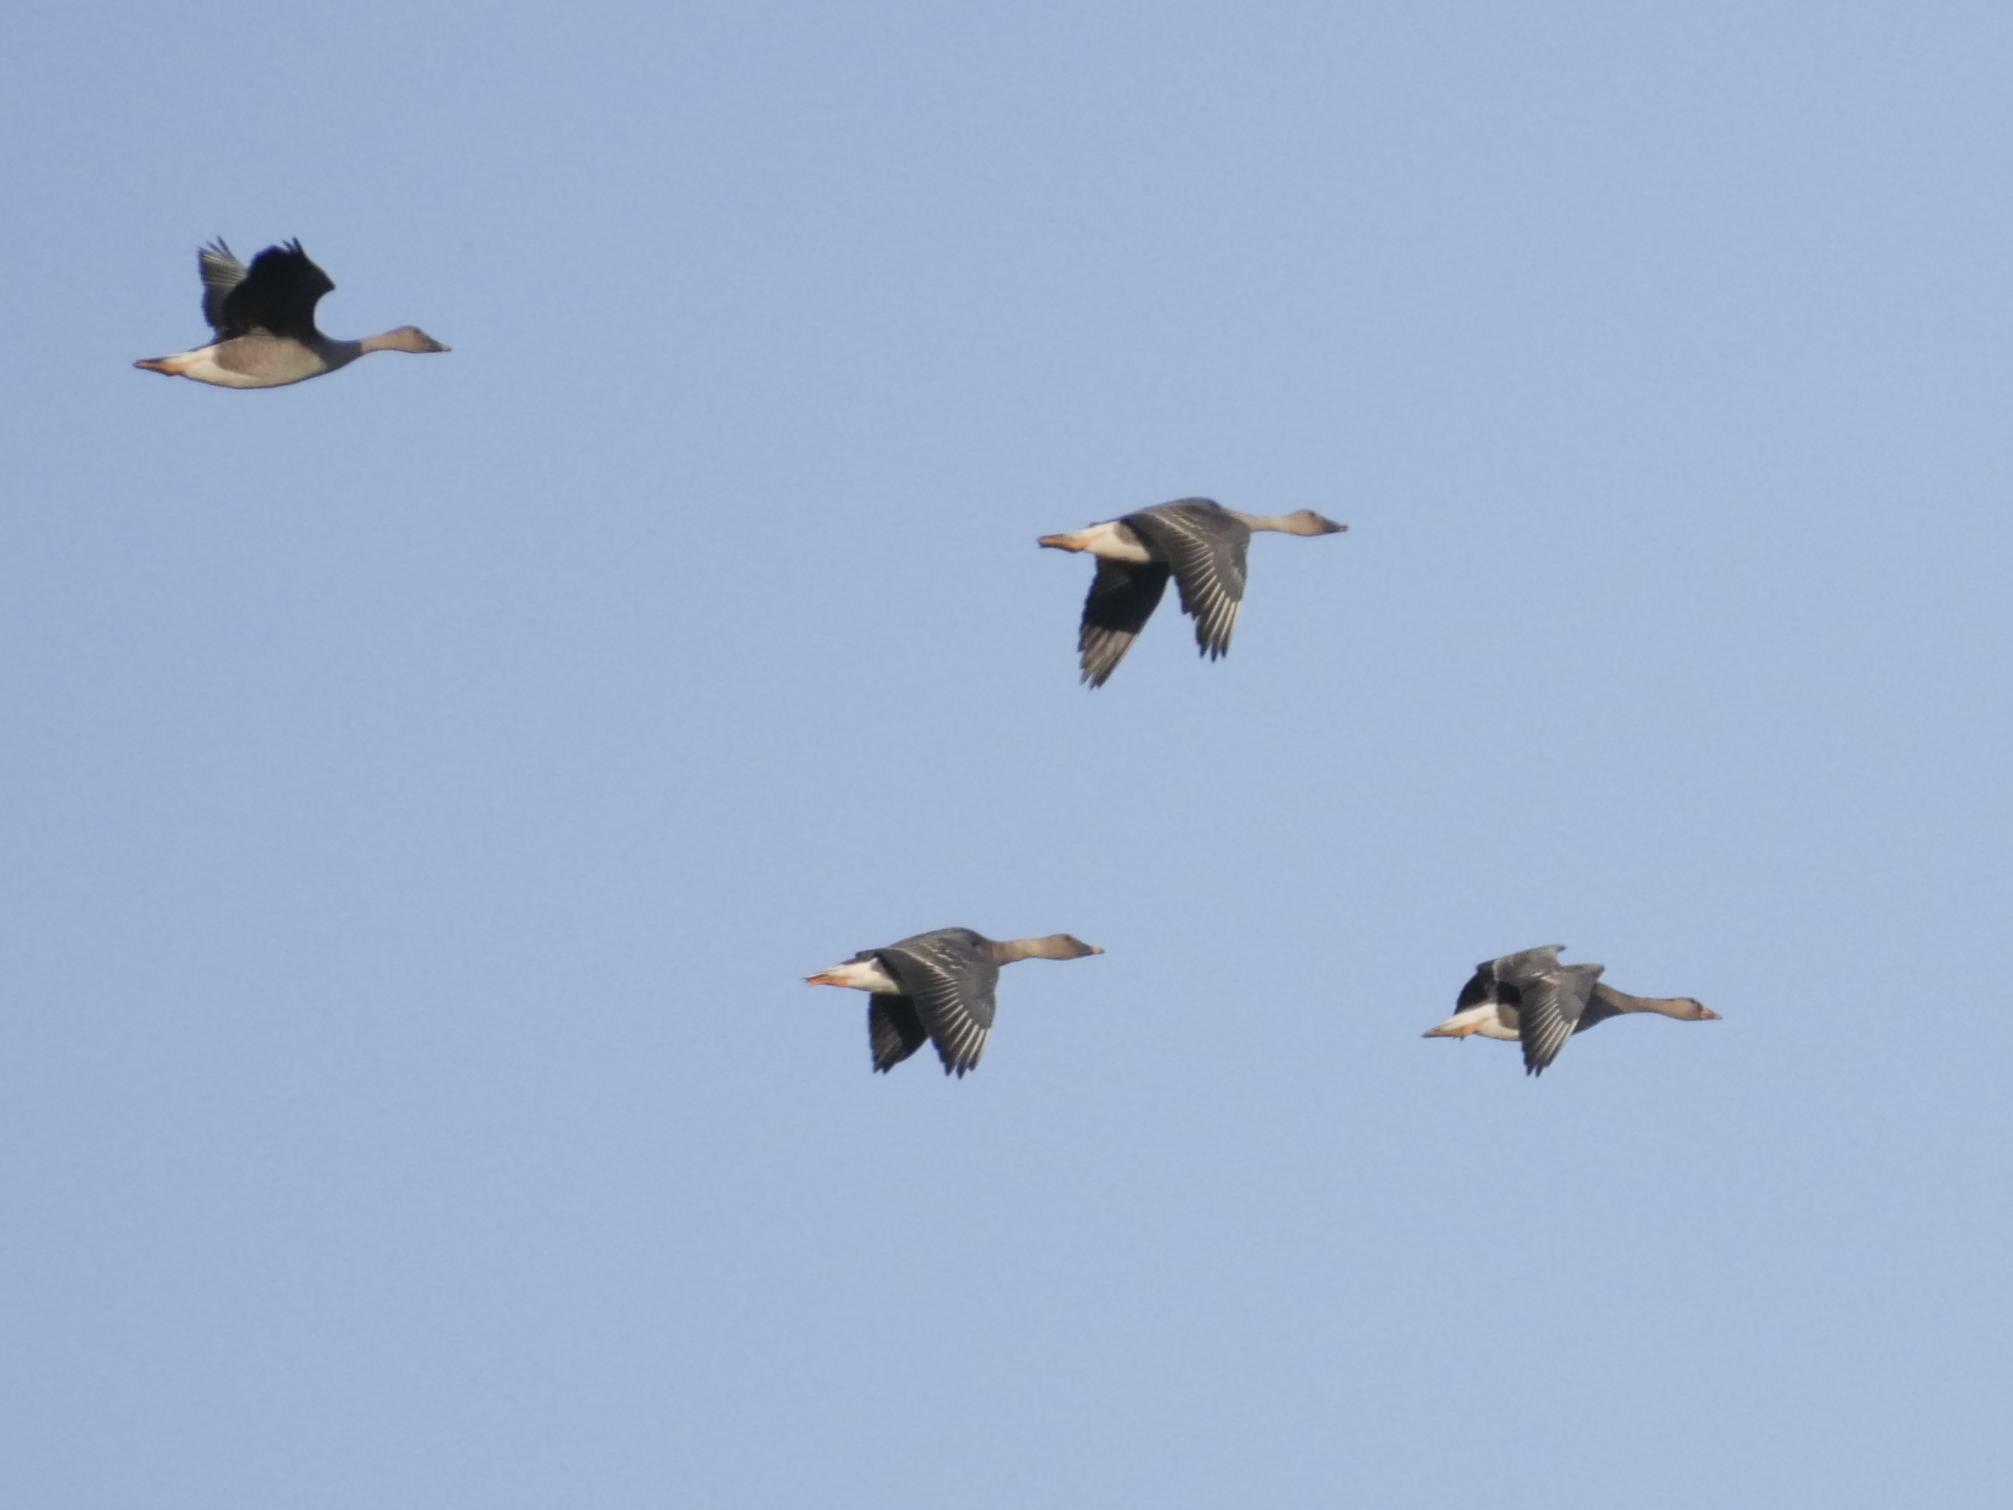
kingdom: Animalia
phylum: Chordata
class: Aves
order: Anseriformes
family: Anatidae
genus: Anser
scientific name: Anser serrirostris
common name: Tundra bean goose
